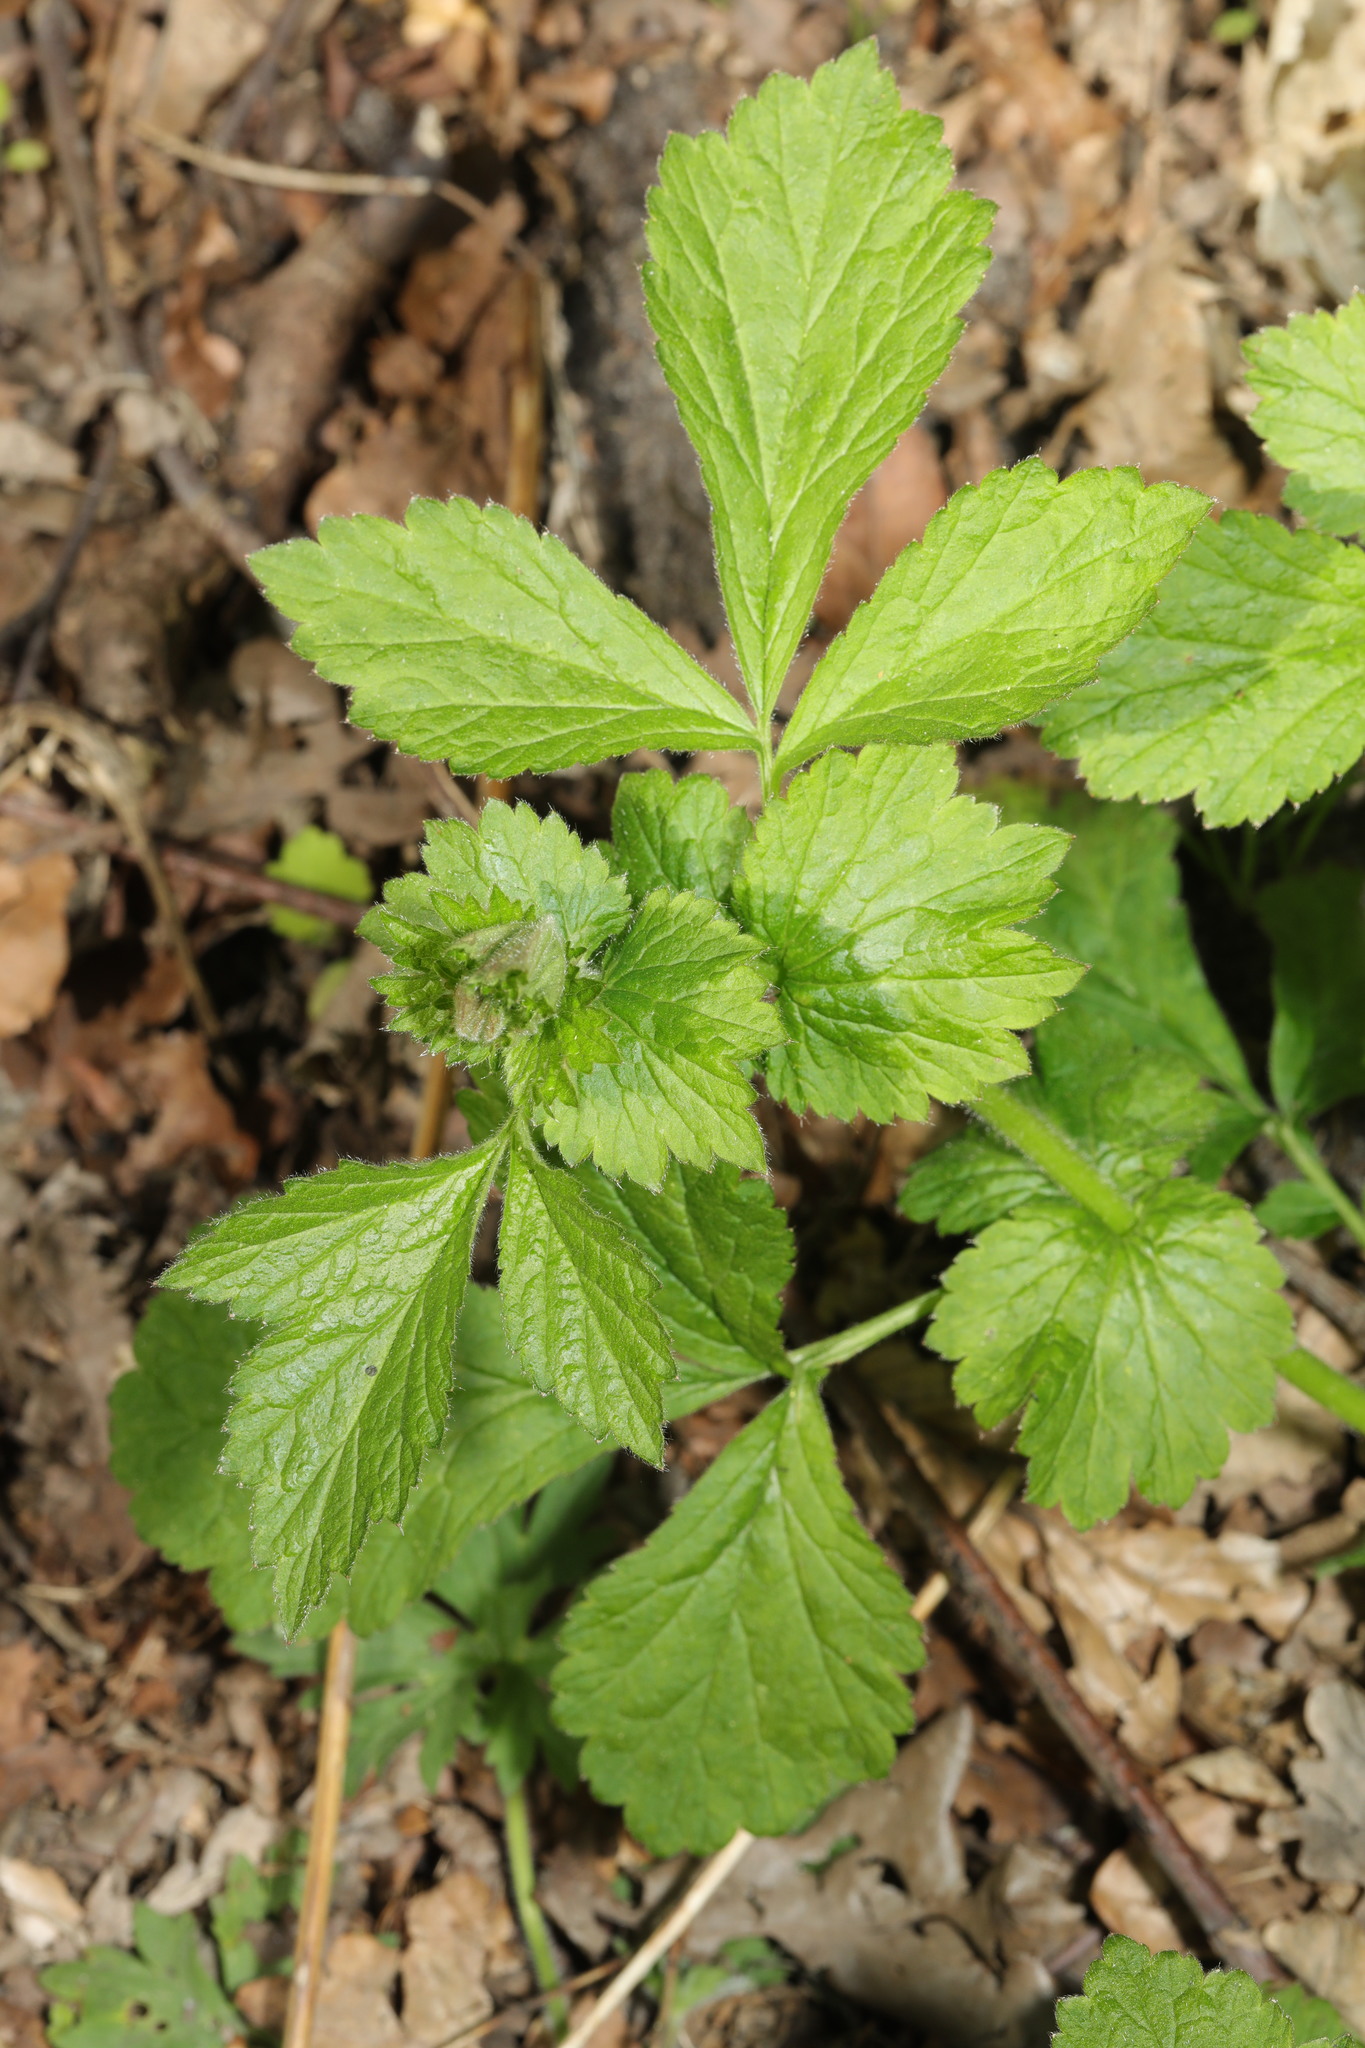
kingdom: Plantae
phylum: Tracheophyta
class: Magnoliopsida
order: Rosales
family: Rosaceae
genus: Geum
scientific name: Geum urbanum
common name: Wood avens
